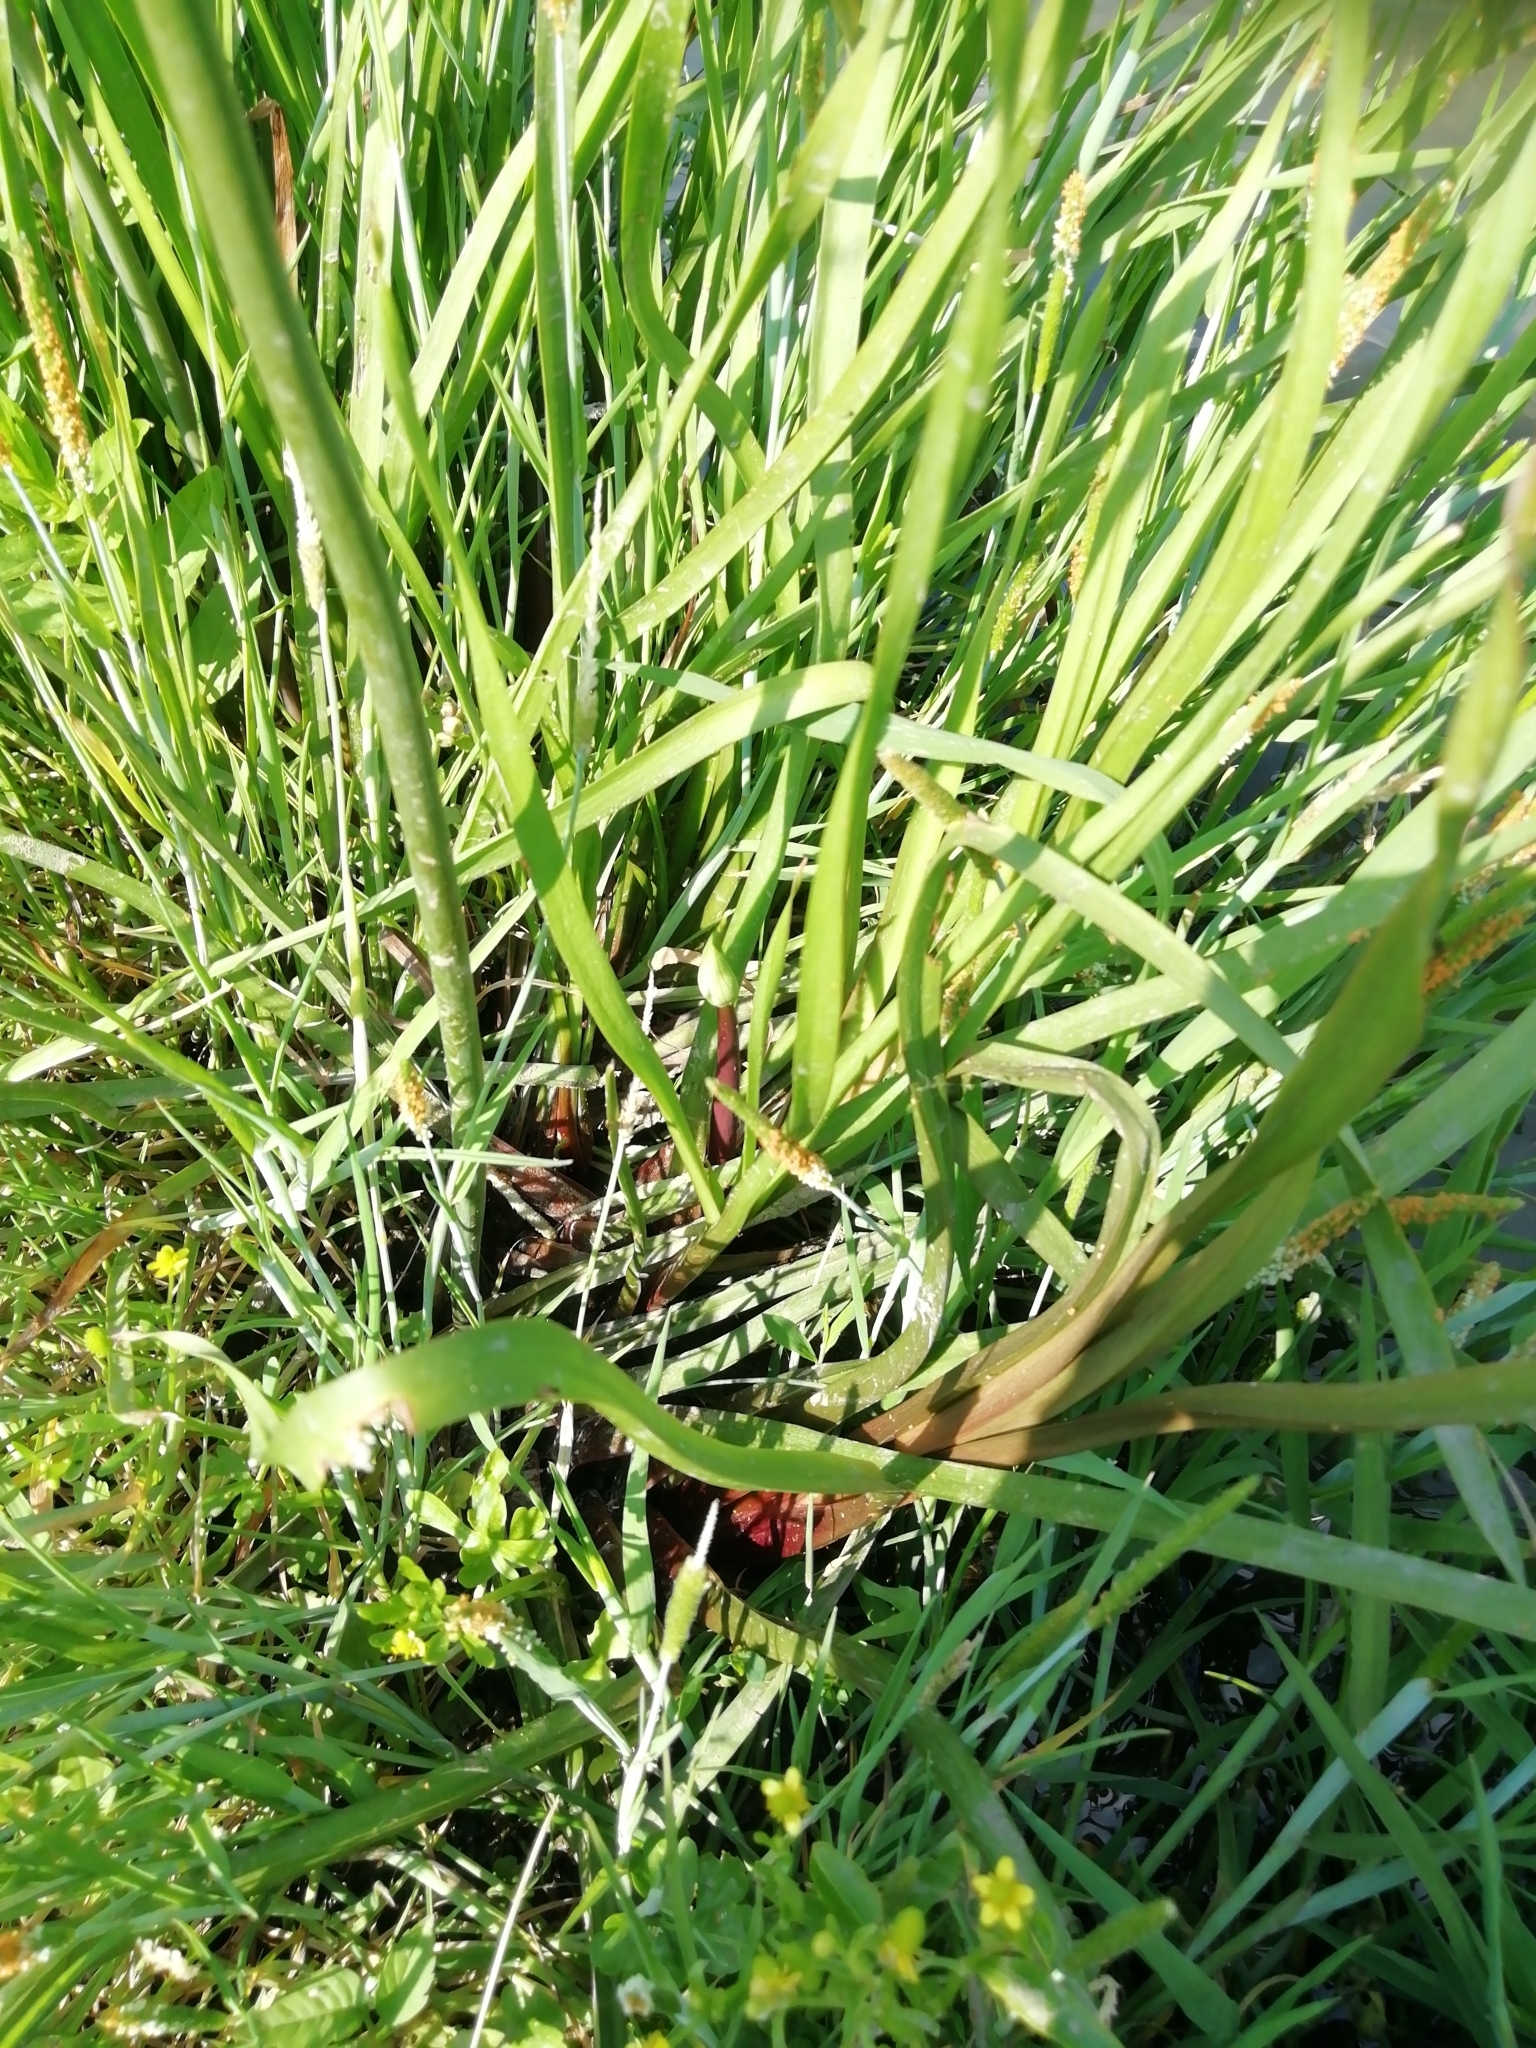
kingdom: Plantae
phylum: Tracheophyta
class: Liliopsida
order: Alismatales
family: Butomaceae
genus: Butomus
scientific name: Butomus umbellatus
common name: Flowering-rush
